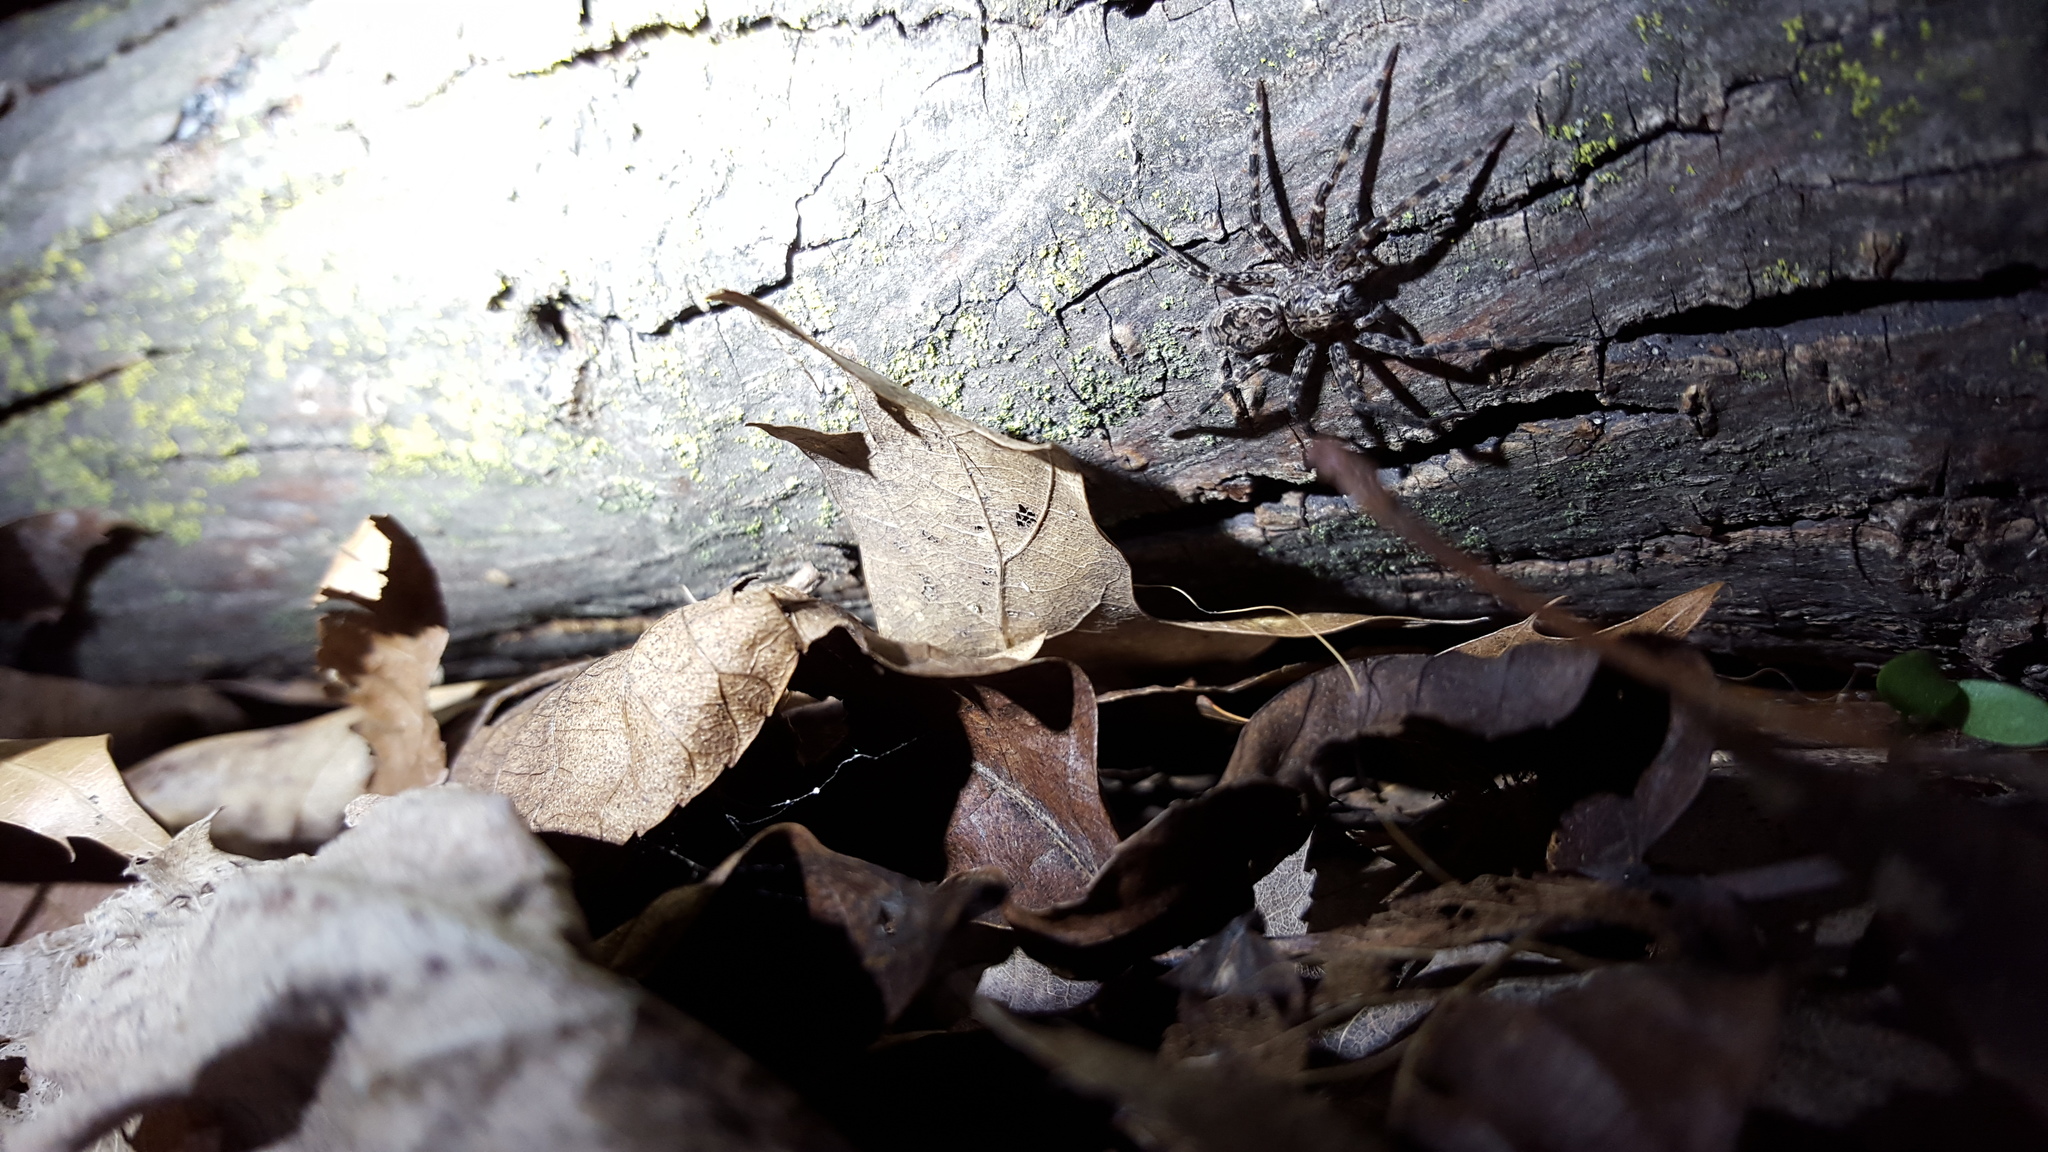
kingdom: Animalia
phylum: Arthropoda
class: Arachnida
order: Araneae
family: Pisauridae
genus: Dolomedes
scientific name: Dolomedes tenebrosus
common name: Dark fishing spider
